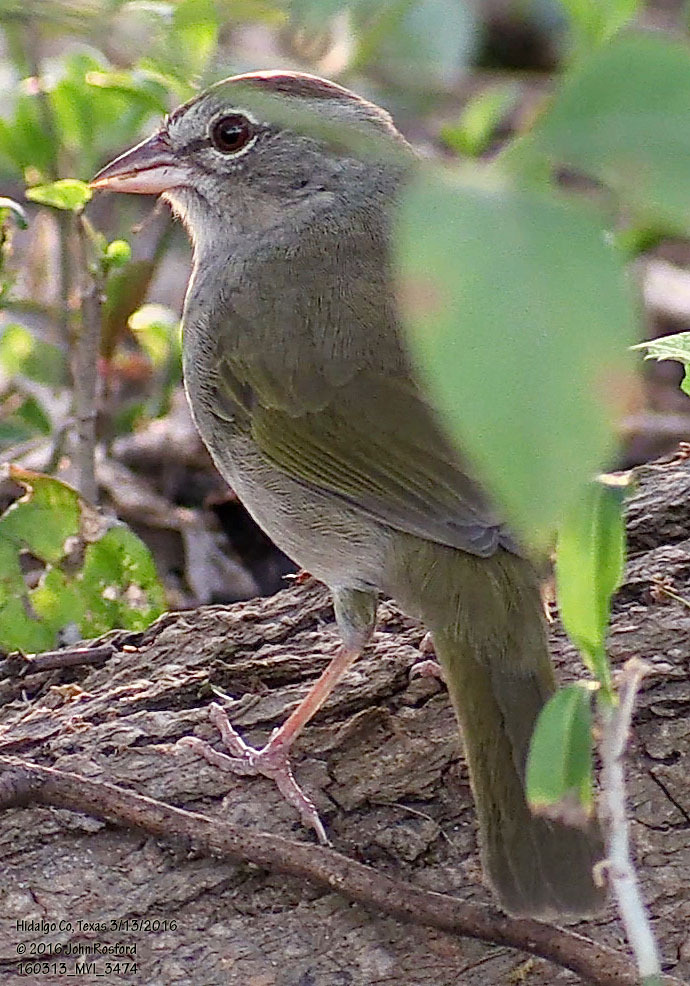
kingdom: Animalia
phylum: Chordata
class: Aves
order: Passeriformes
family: Passerellidae
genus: Arremonops
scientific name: Arremonops rufivirgatus
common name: Olive sparrow
